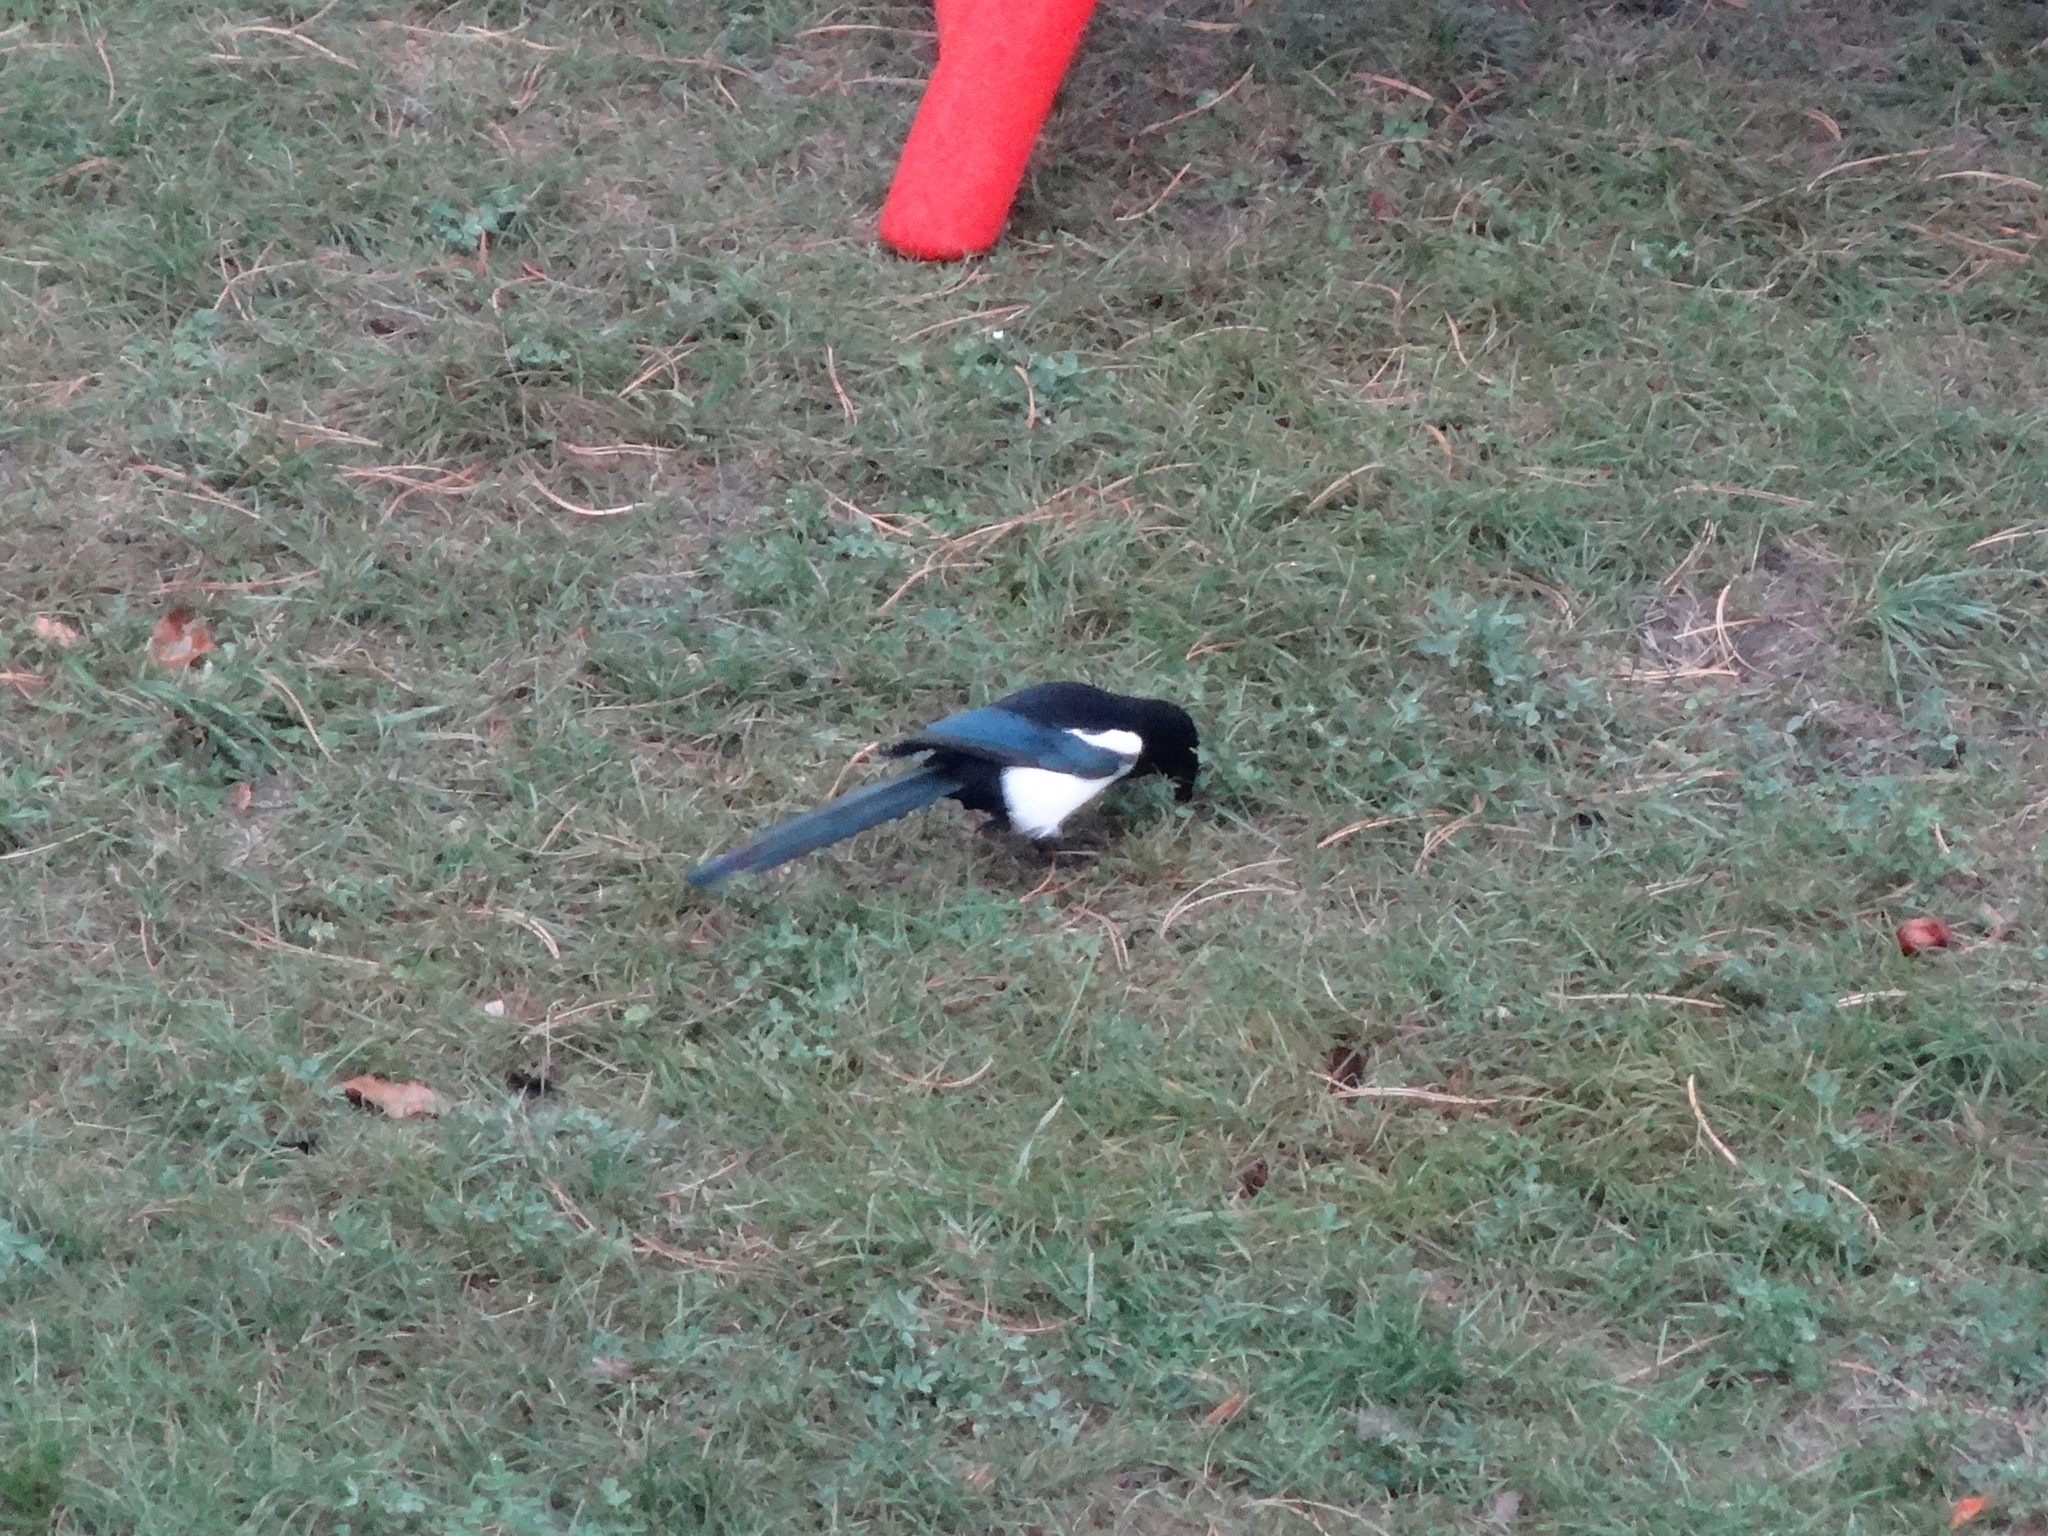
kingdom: Animalia
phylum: Chordata
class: Aves
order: Passeriformes
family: Corvidae
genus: Pica
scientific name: Pica pica
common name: Eurasian magpie
